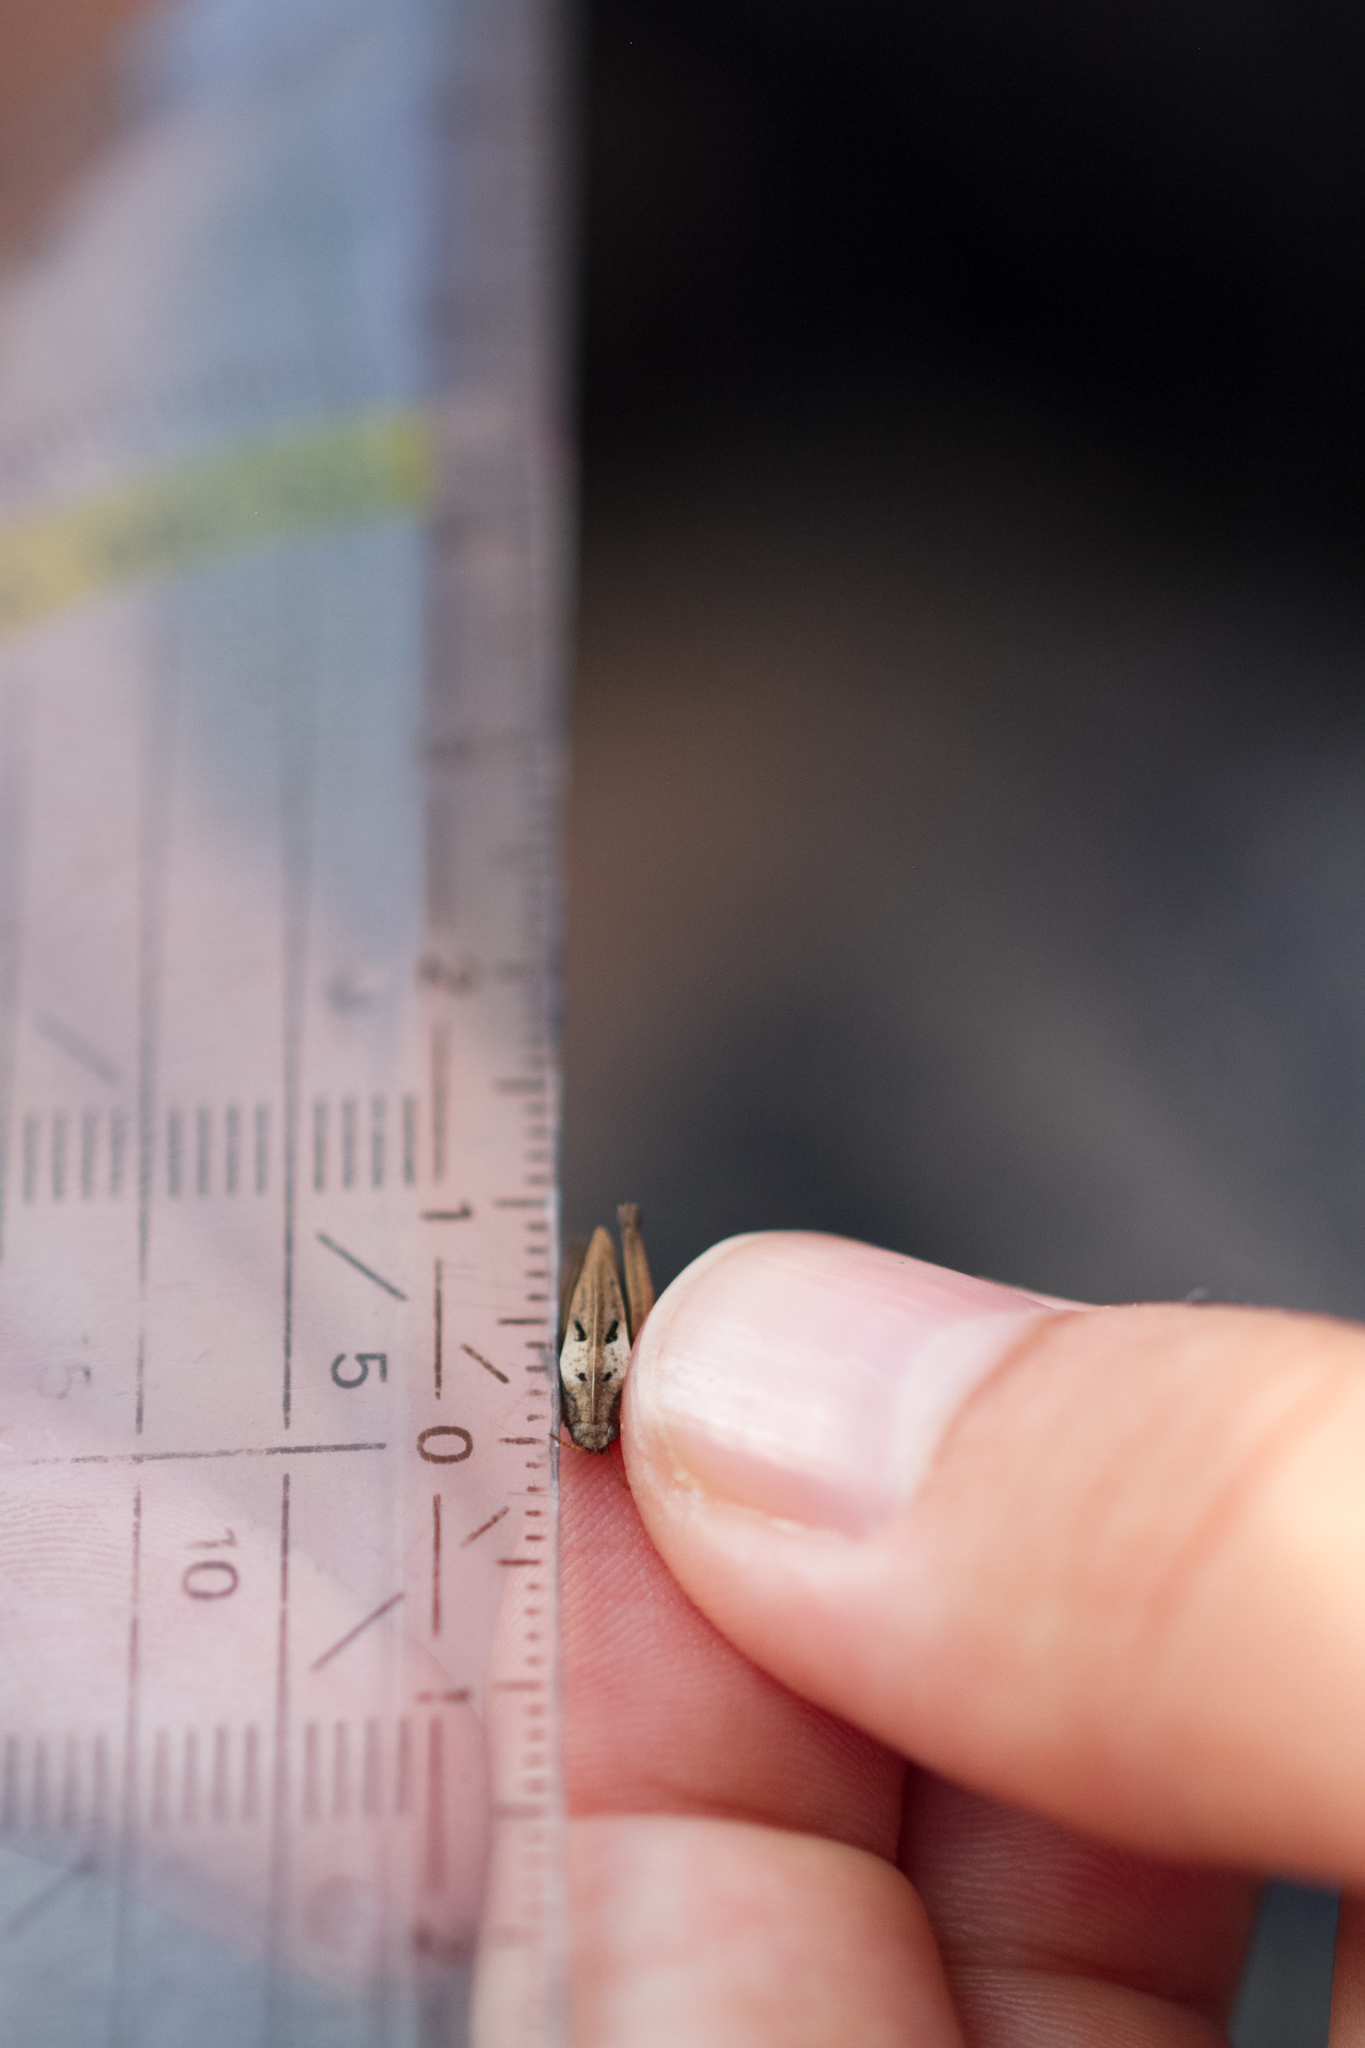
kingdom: Animalia
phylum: Arthropoda
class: Insecta
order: Orthoptera
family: Tetrigidae
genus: Tetrix
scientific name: Tetrix bipunctata
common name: Two-spotted groundhopper
